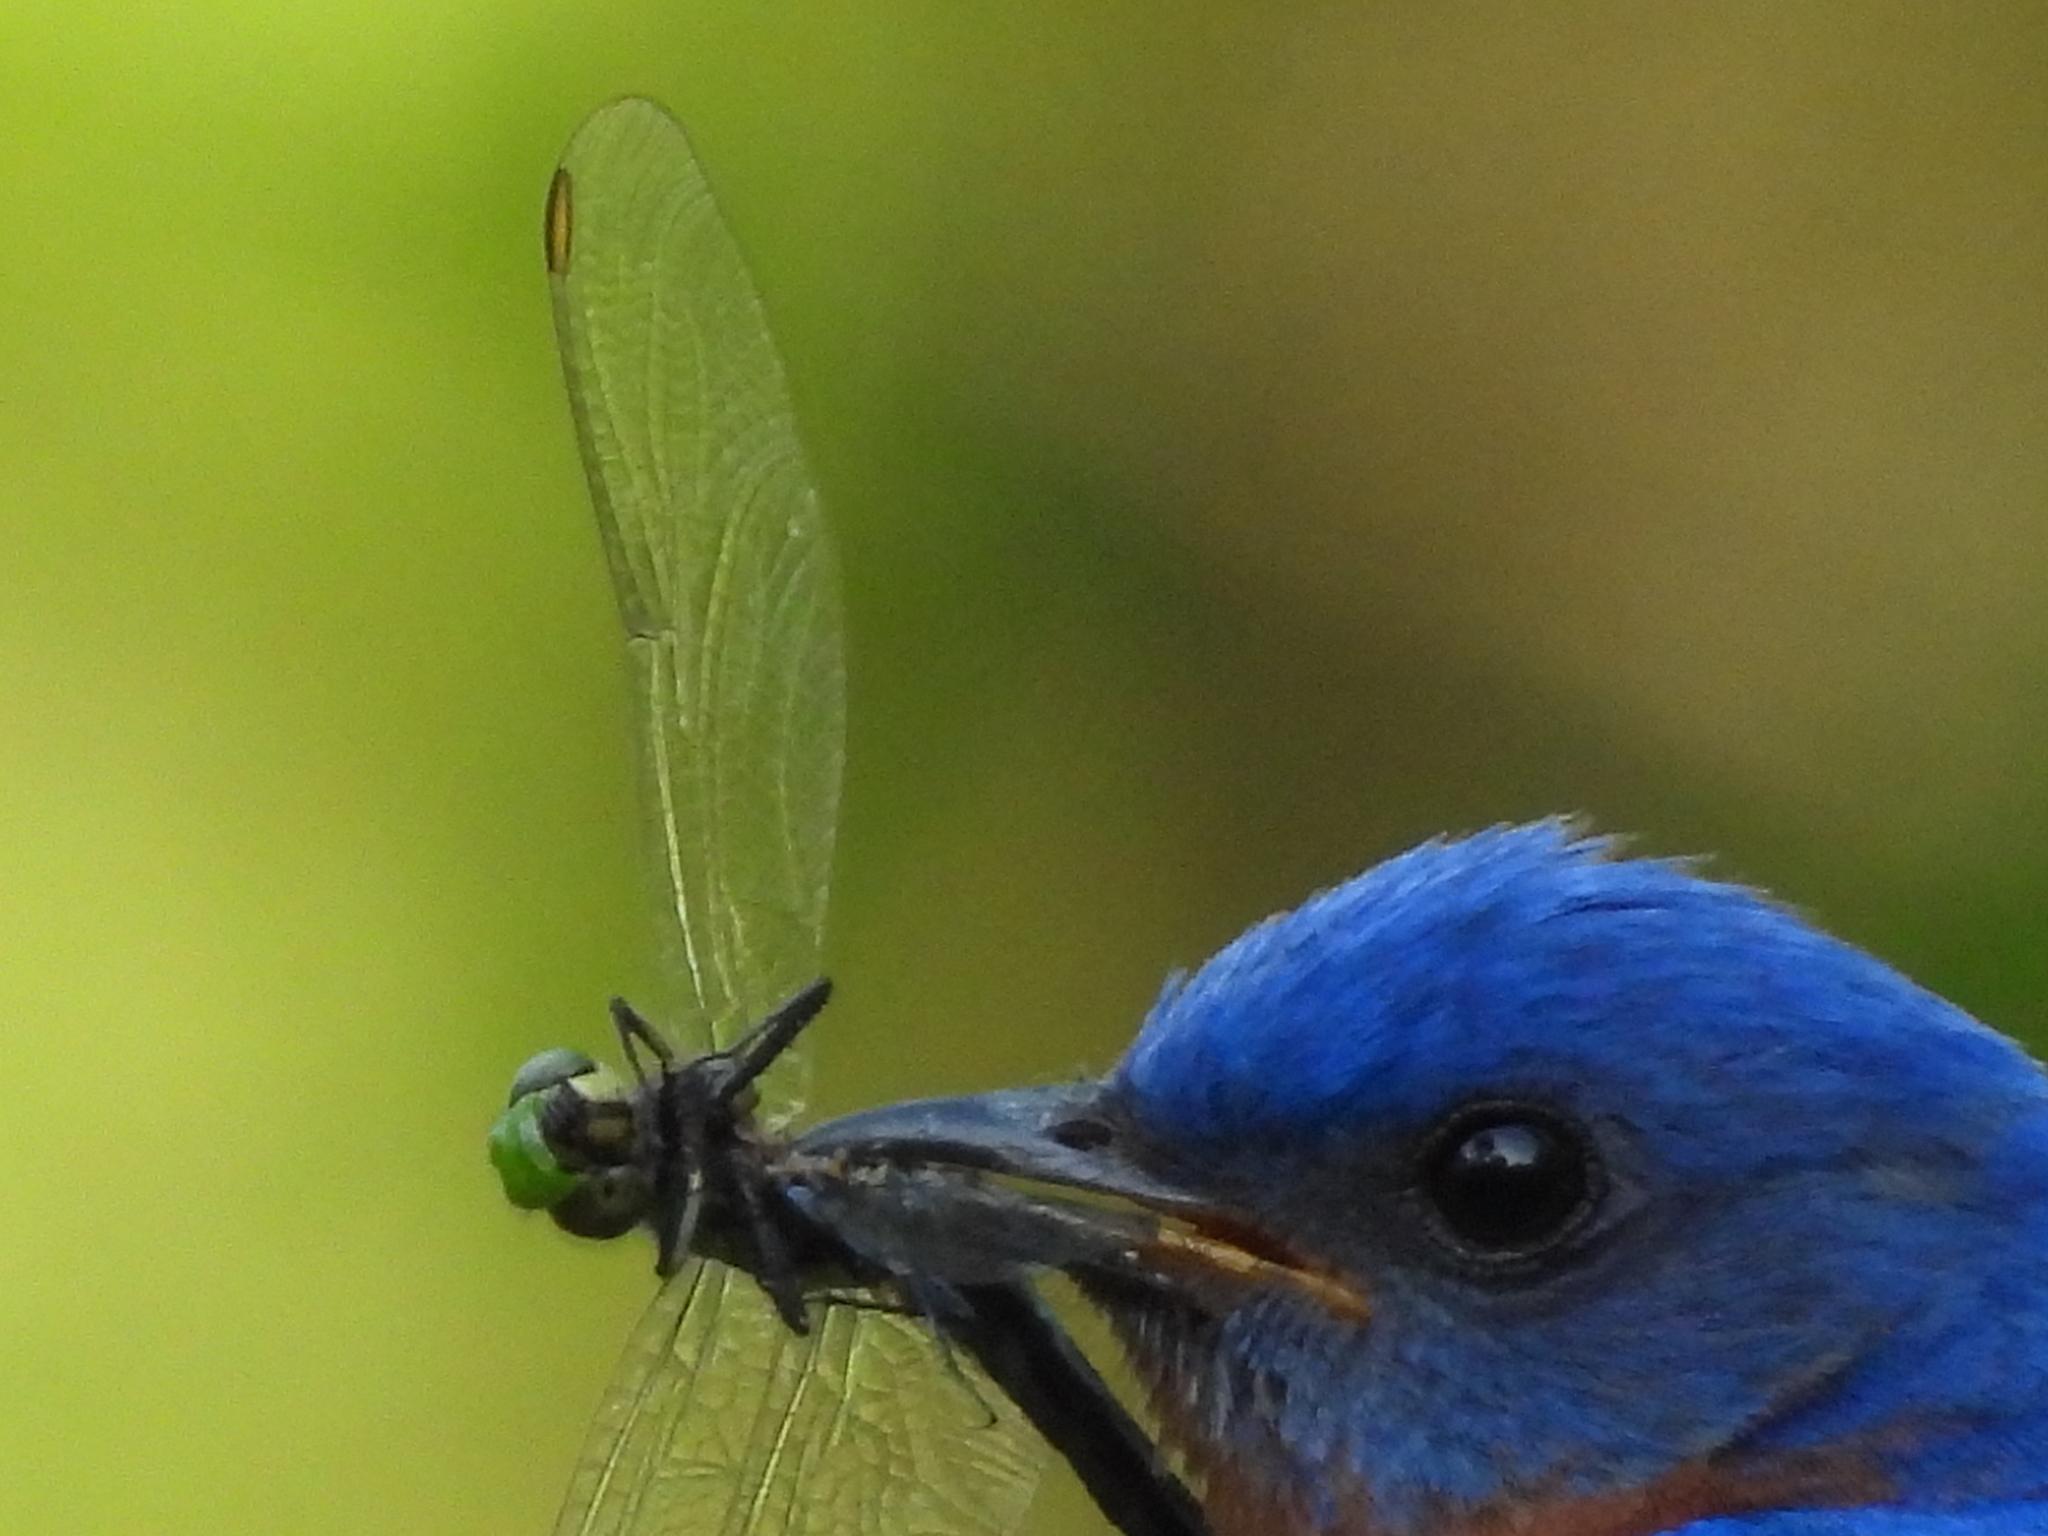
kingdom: Animalia
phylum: Arthropoda
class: Insecta
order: Odonata
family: Libellulidae
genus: Erythemis
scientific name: Erythemis simplicicollis
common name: Eastern pondhawk
